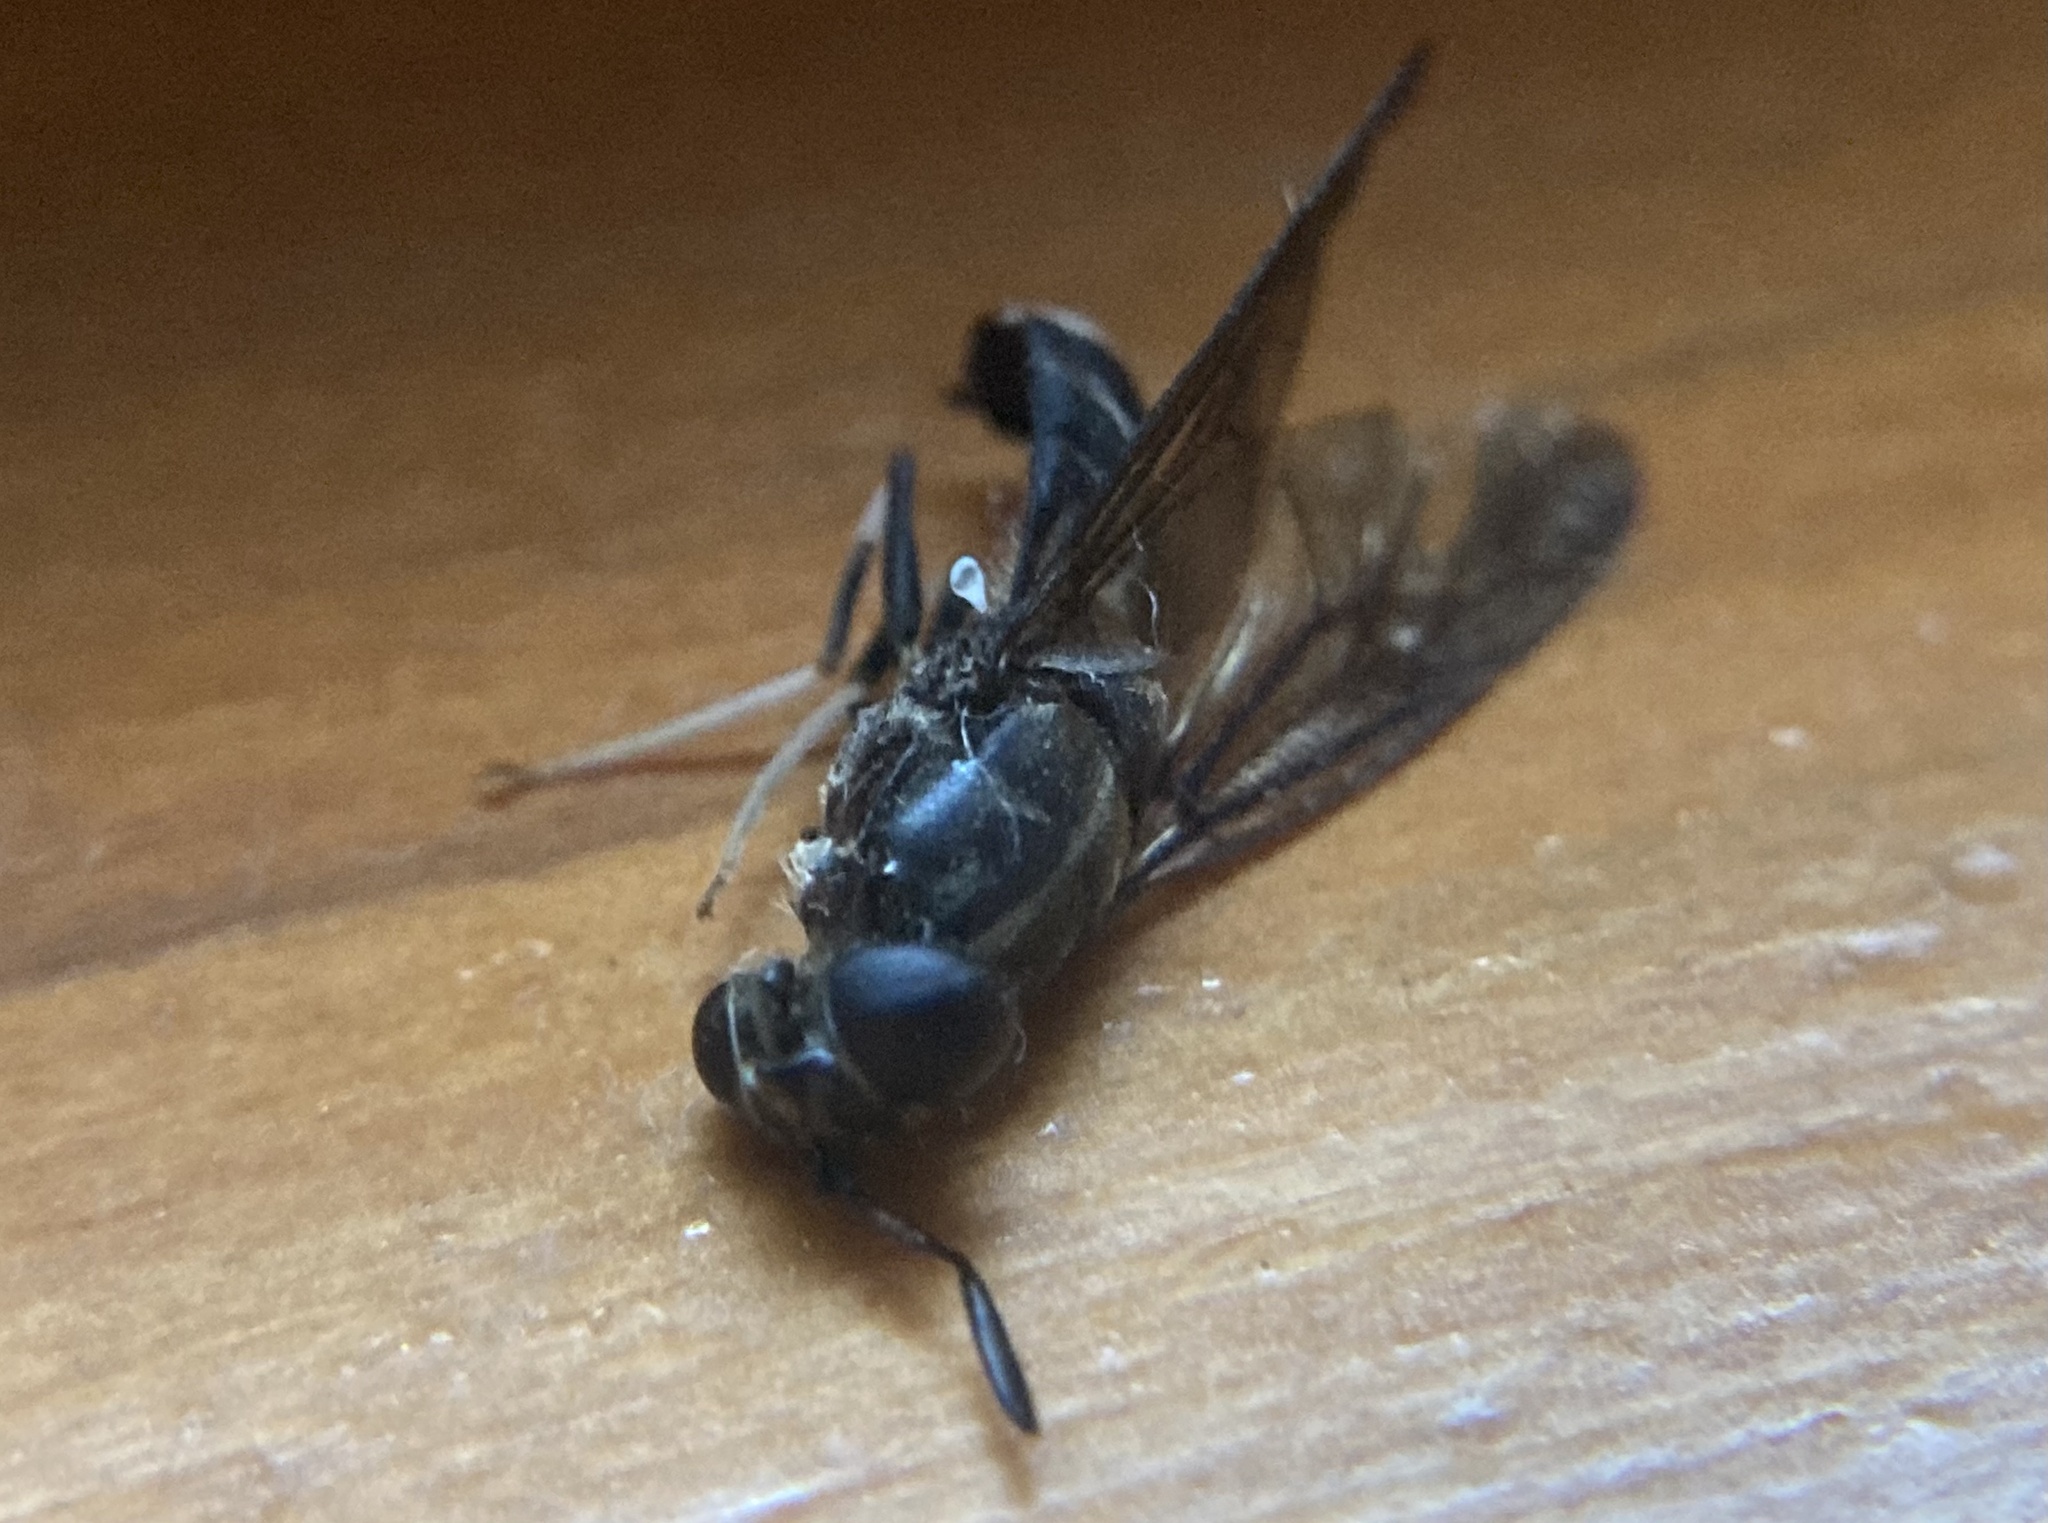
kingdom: Animalia
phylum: Arthropoda
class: Insecta
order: Diptera
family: Stratiomyidae
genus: Hermetia
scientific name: Hermetia illucens
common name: Black soldier fly
